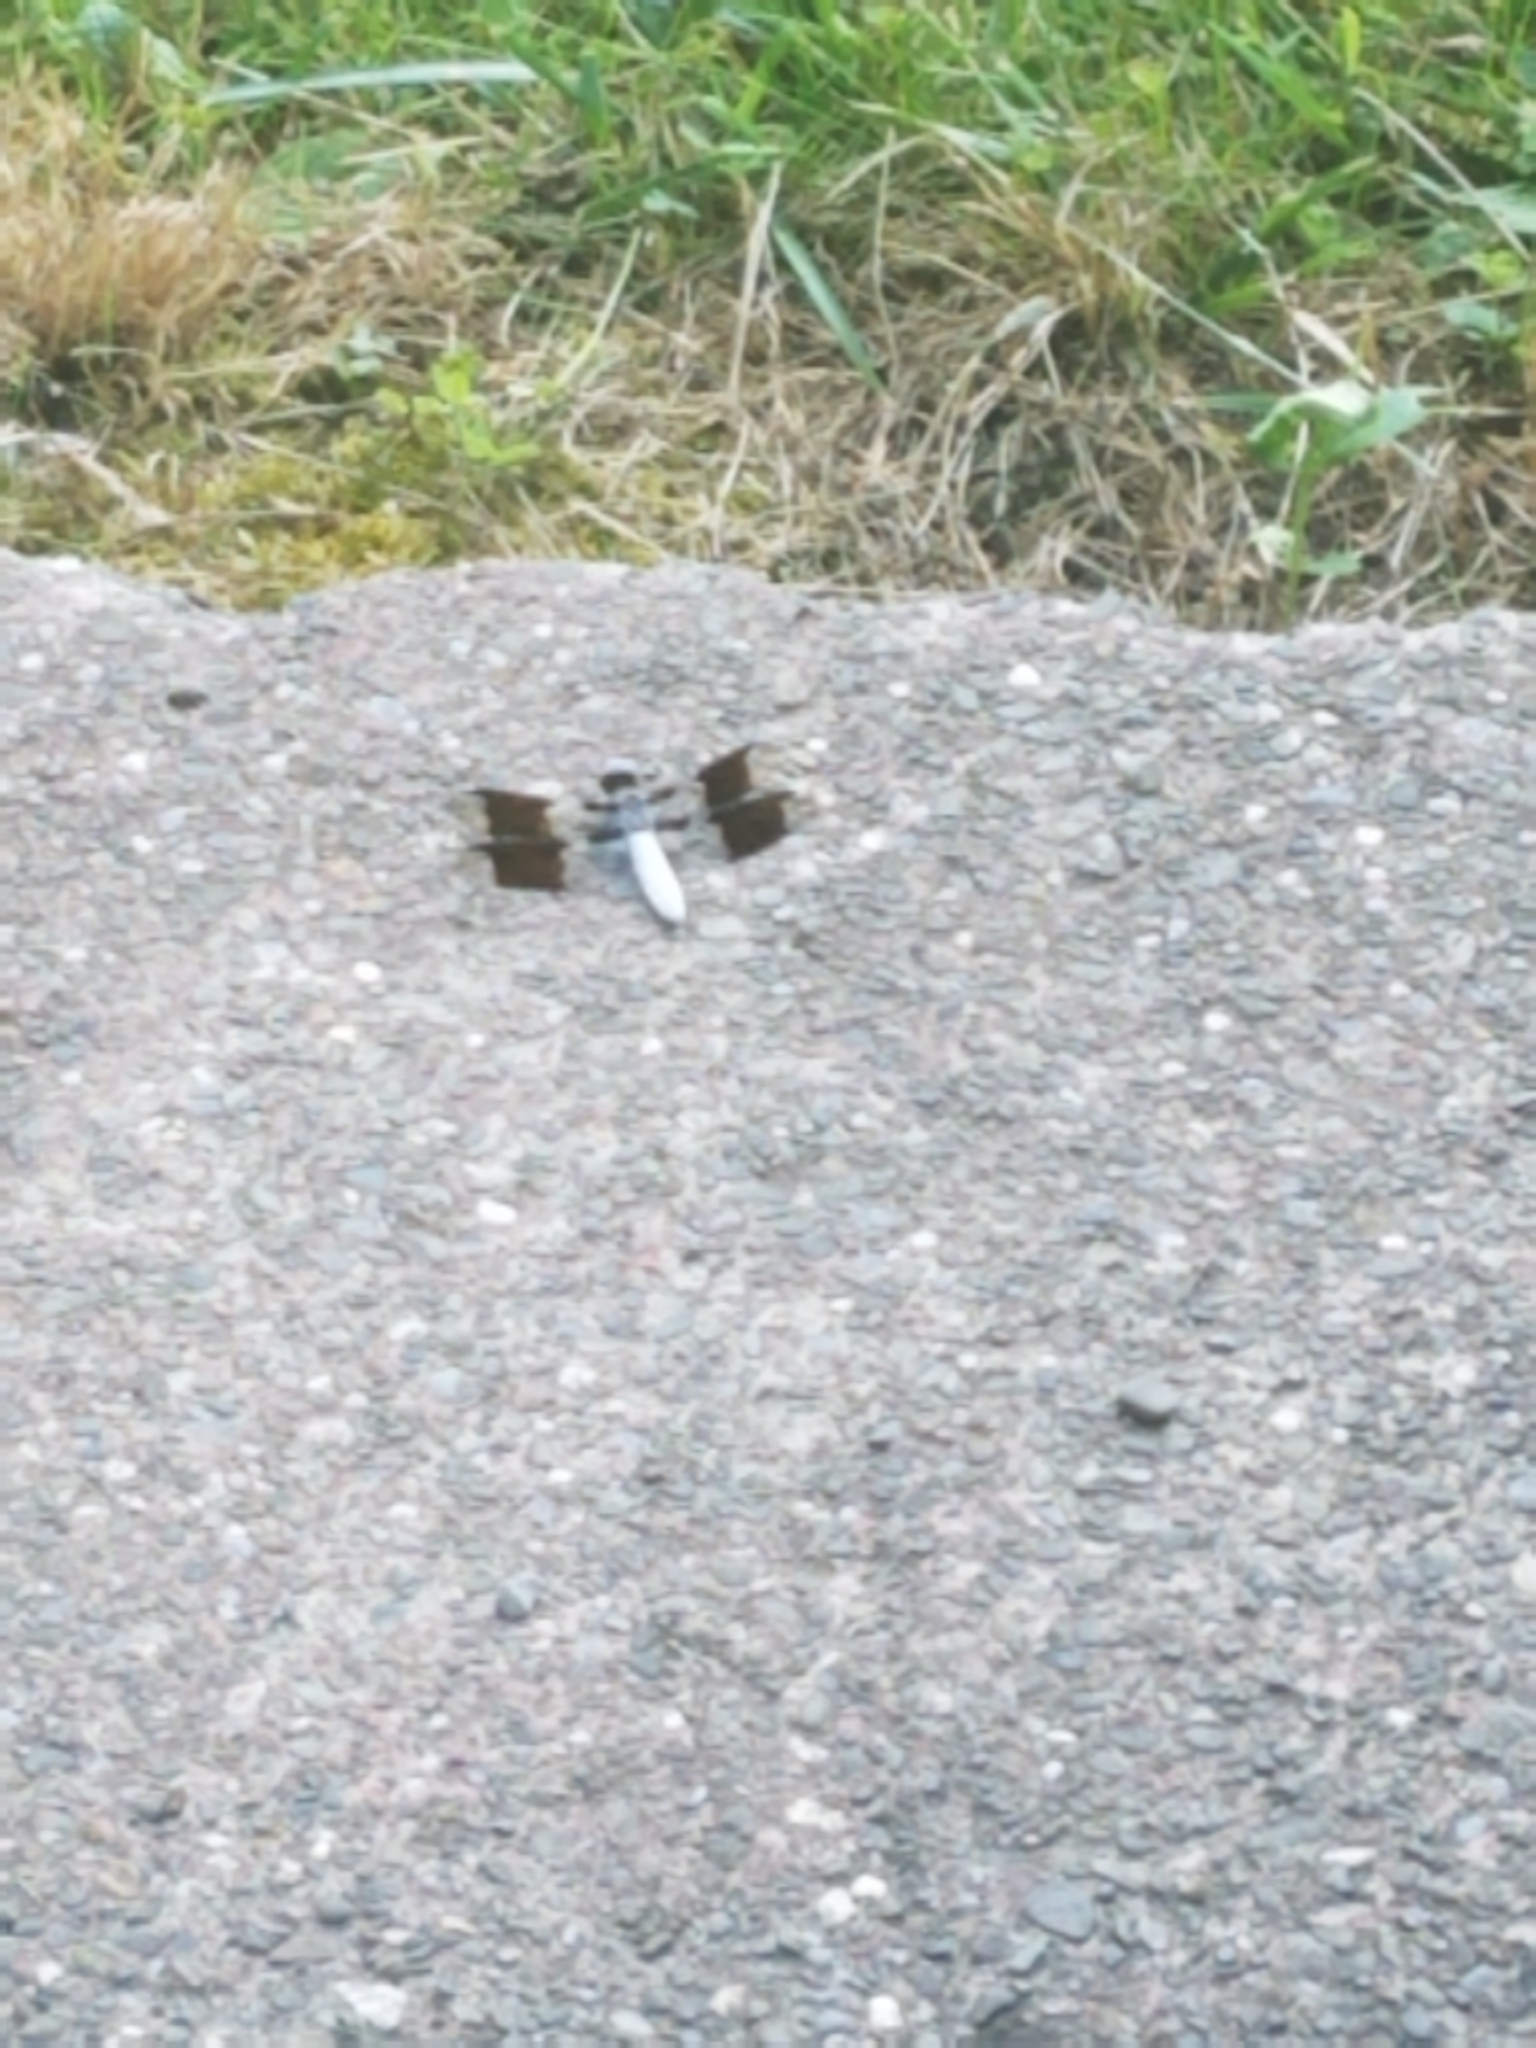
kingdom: Animalia
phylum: Arthropoda
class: Insecta
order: Odonata
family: Libellulidae
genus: Plathemis
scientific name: Plathemis lydia
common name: Common whitetail
